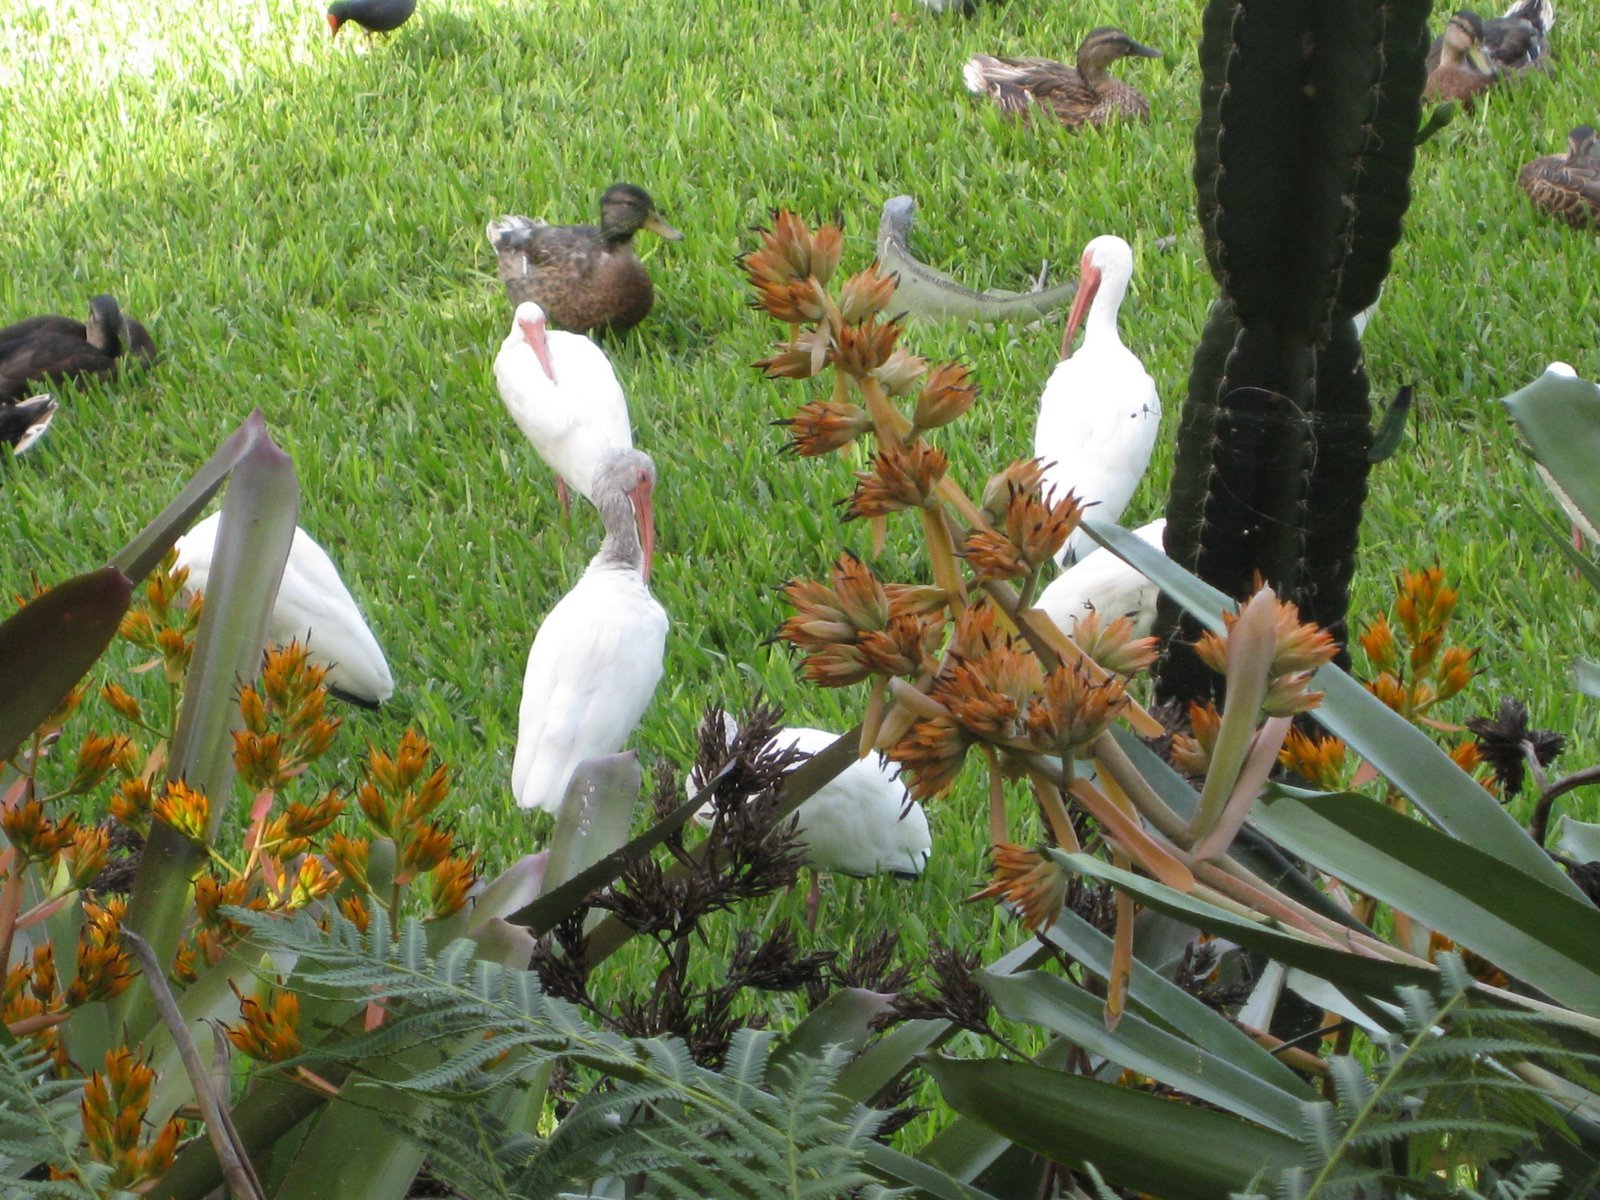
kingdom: Animalia
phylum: Chordata
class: Aves
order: Pelecaniformes
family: Threskiornithidae
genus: Eudocimus
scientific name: Eudocimus albus
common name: White ibis
